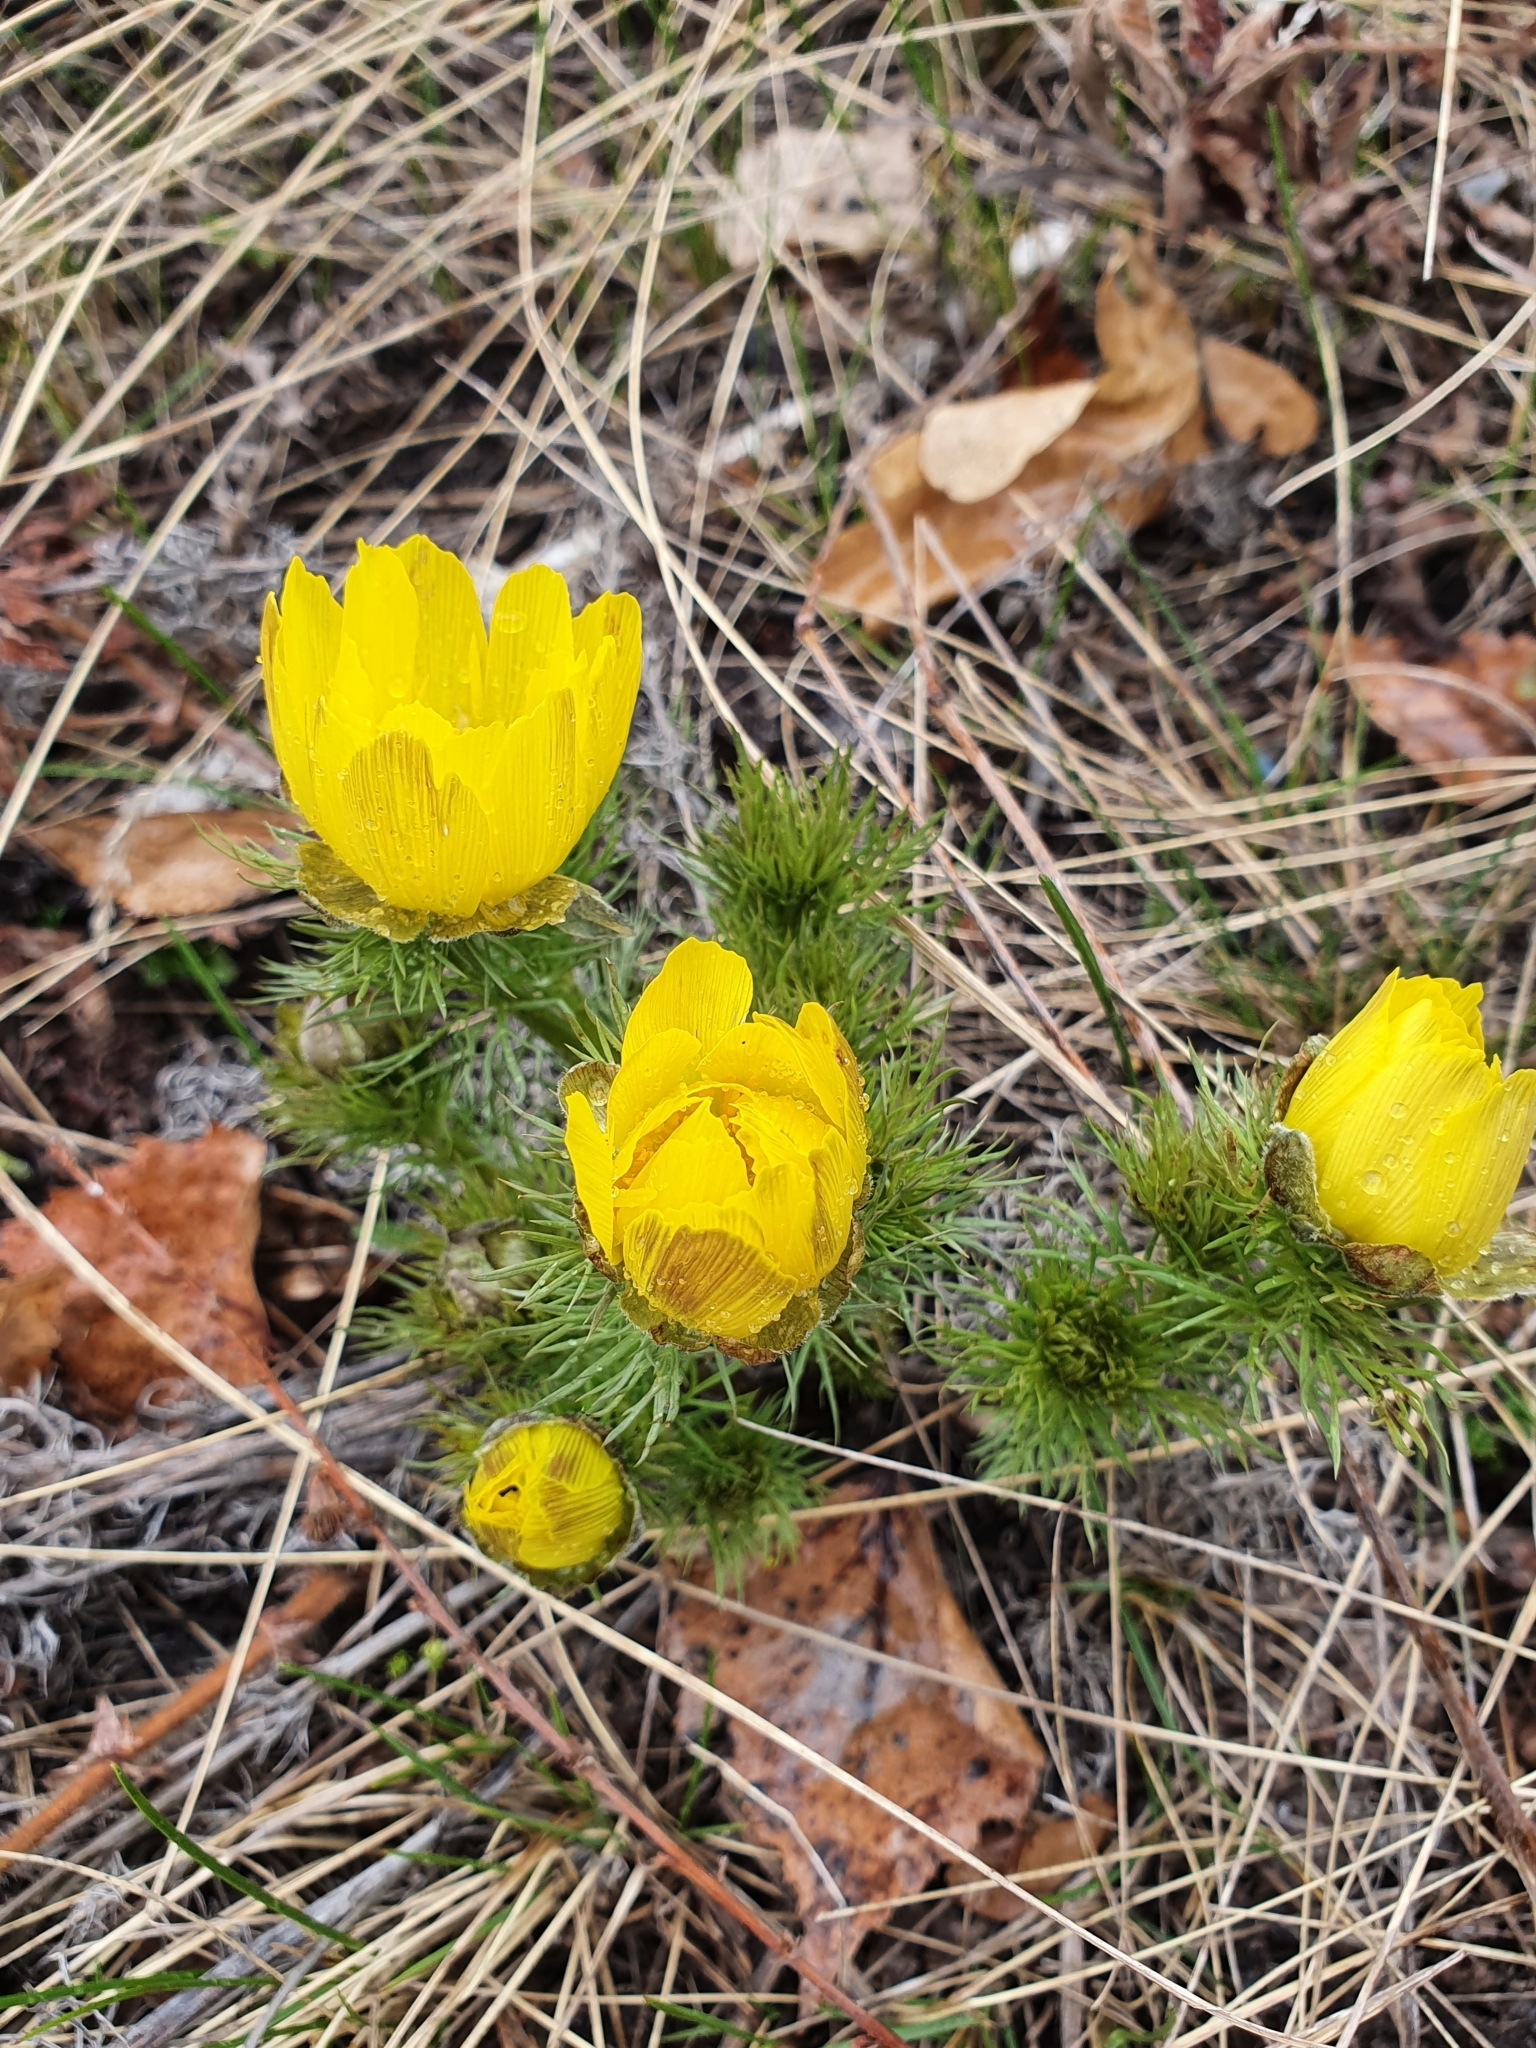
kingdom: Plantae
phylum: Tracheophyta
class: Magnoliopsida
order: Ranunculales
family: Ranunculaceae
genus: Adonis
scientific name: Adonis vernalis
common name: Yellow pheasants-eye
